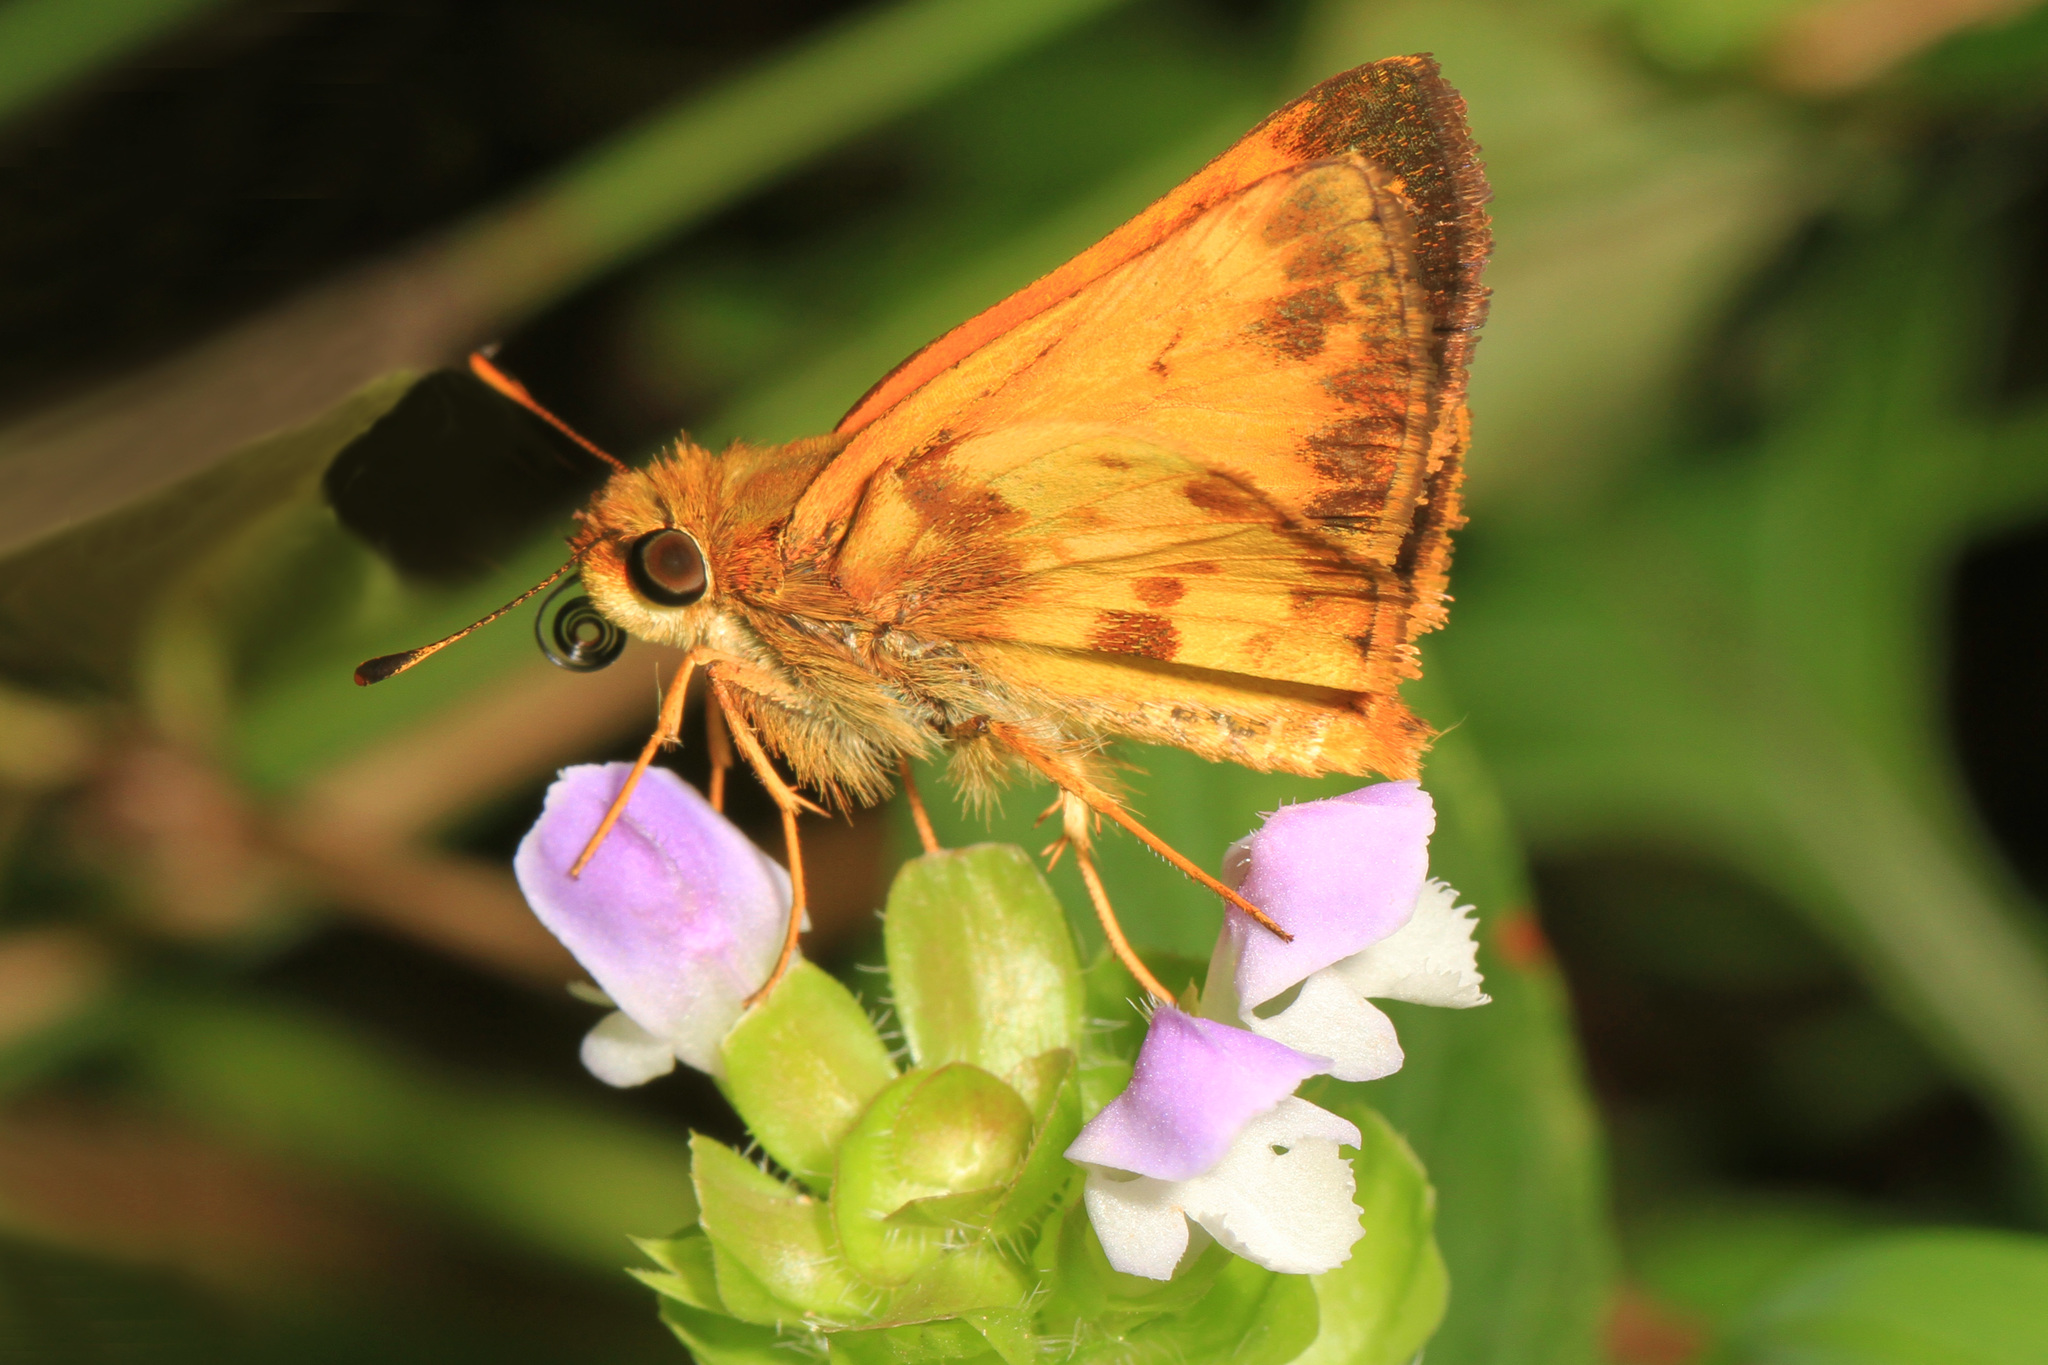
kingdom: Animalia
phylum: Arthropoda
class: Insecta
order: Lepidoptera
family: Hesperiidae
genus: Lon
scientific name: Lon zabulon
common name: Zabulon skipper
